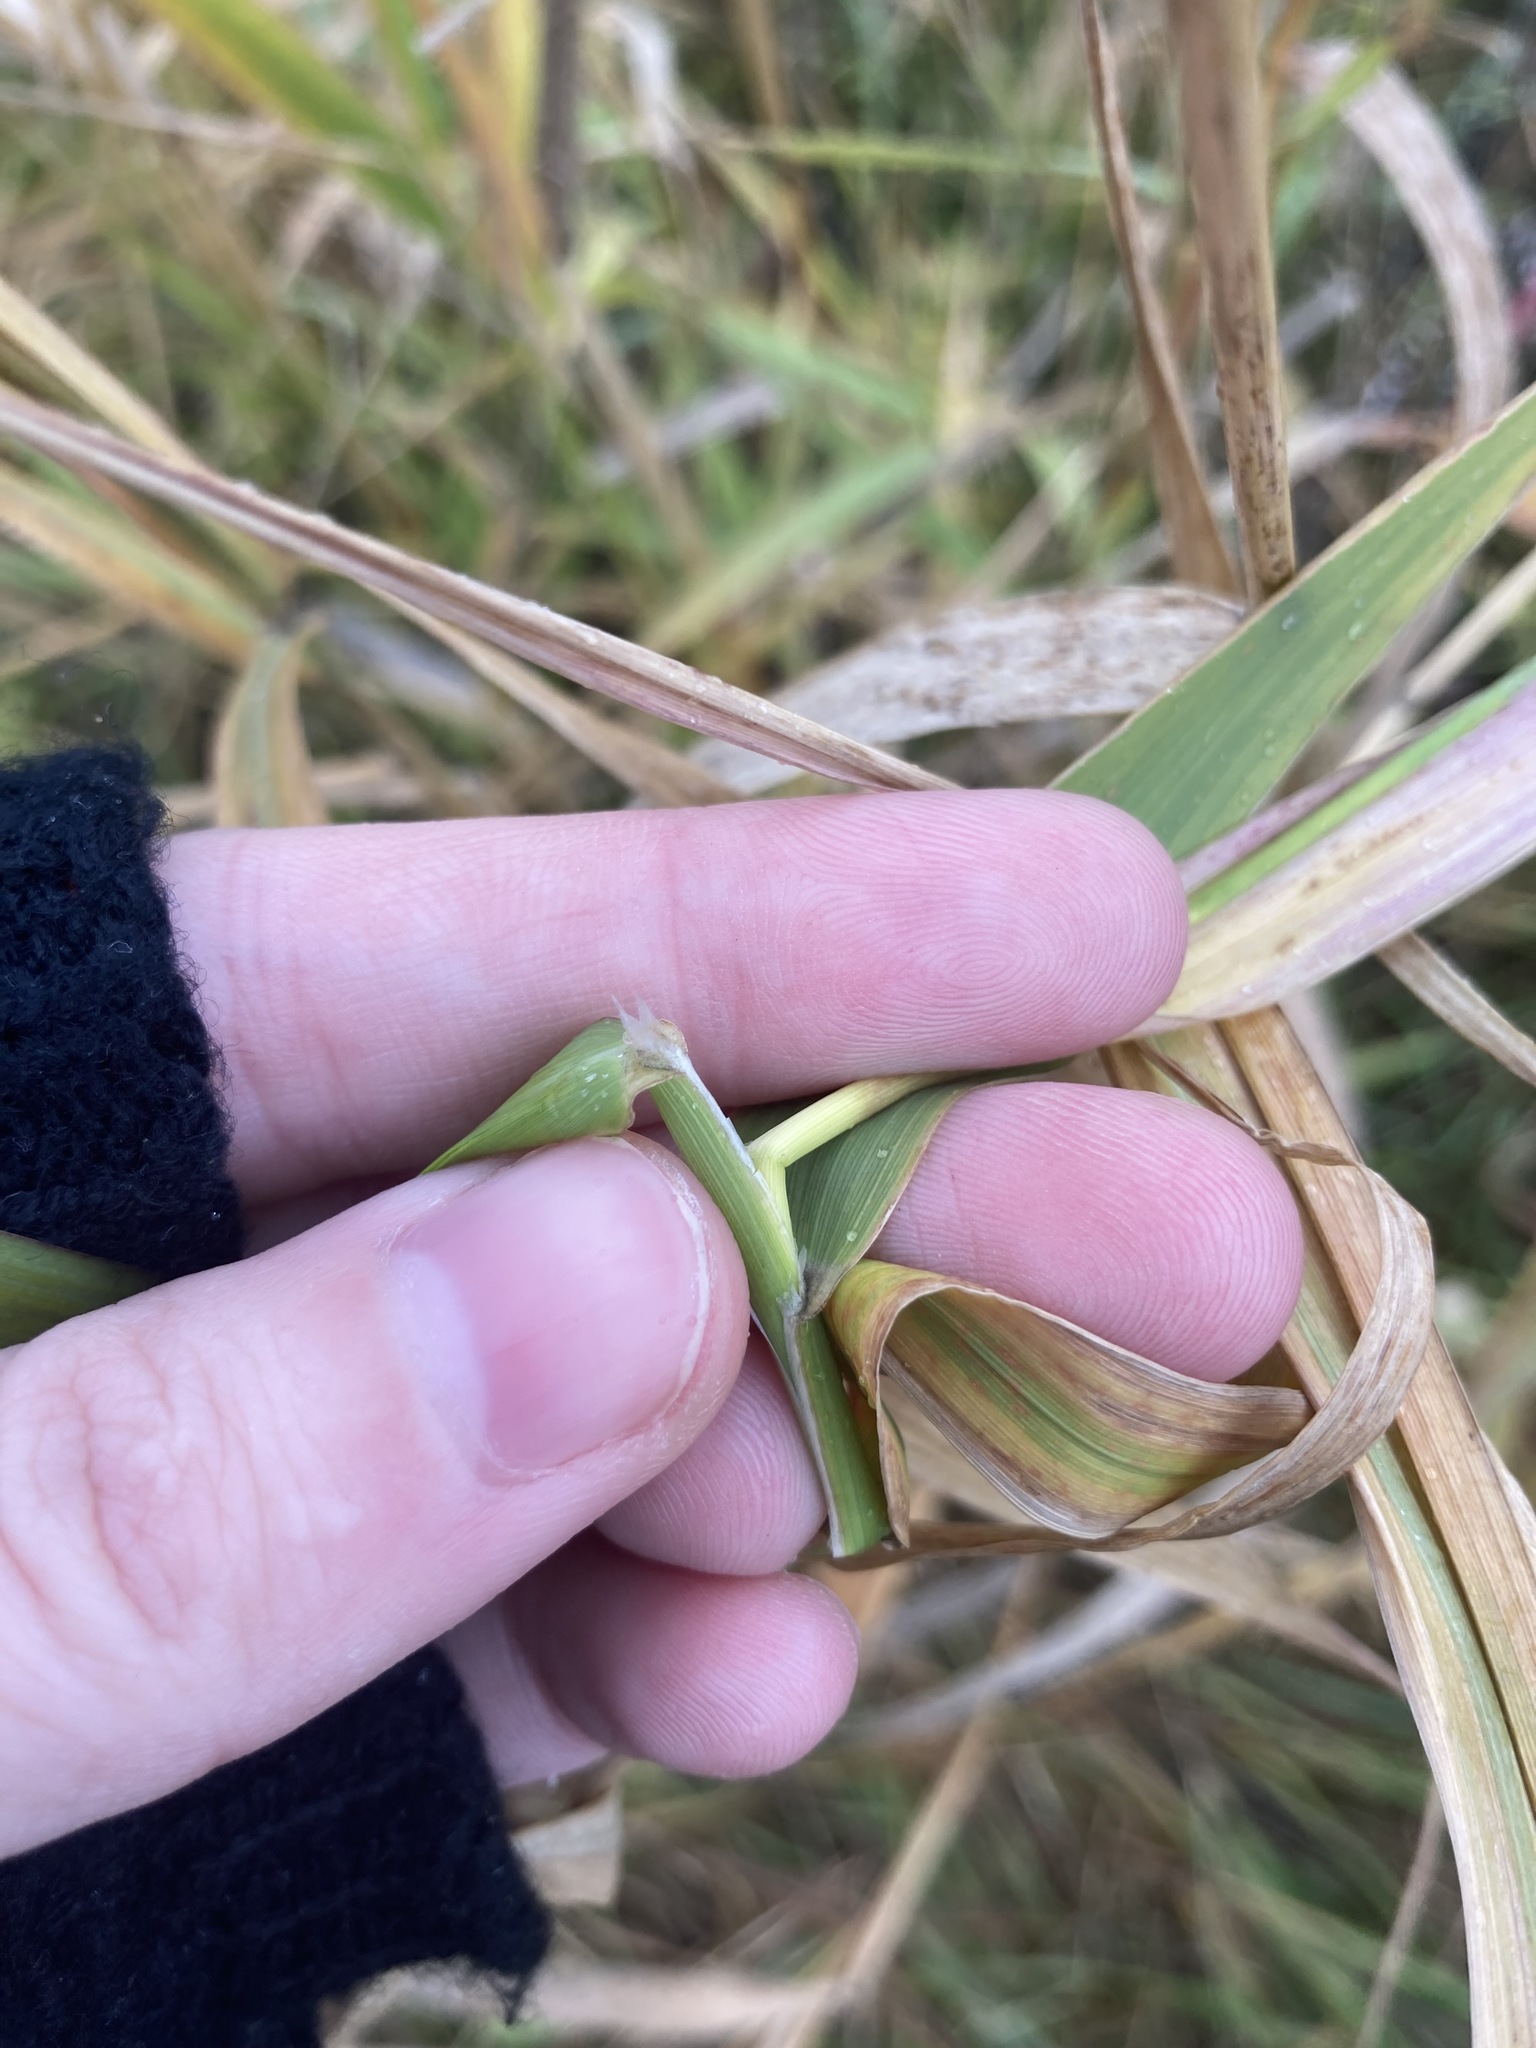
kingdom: Plantae
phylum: Tracheophyta
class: Liliopsida
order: Poales
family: Poaceae
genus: Phalaris
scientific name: Phalaris arundinacea
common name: Reed canary-grass
